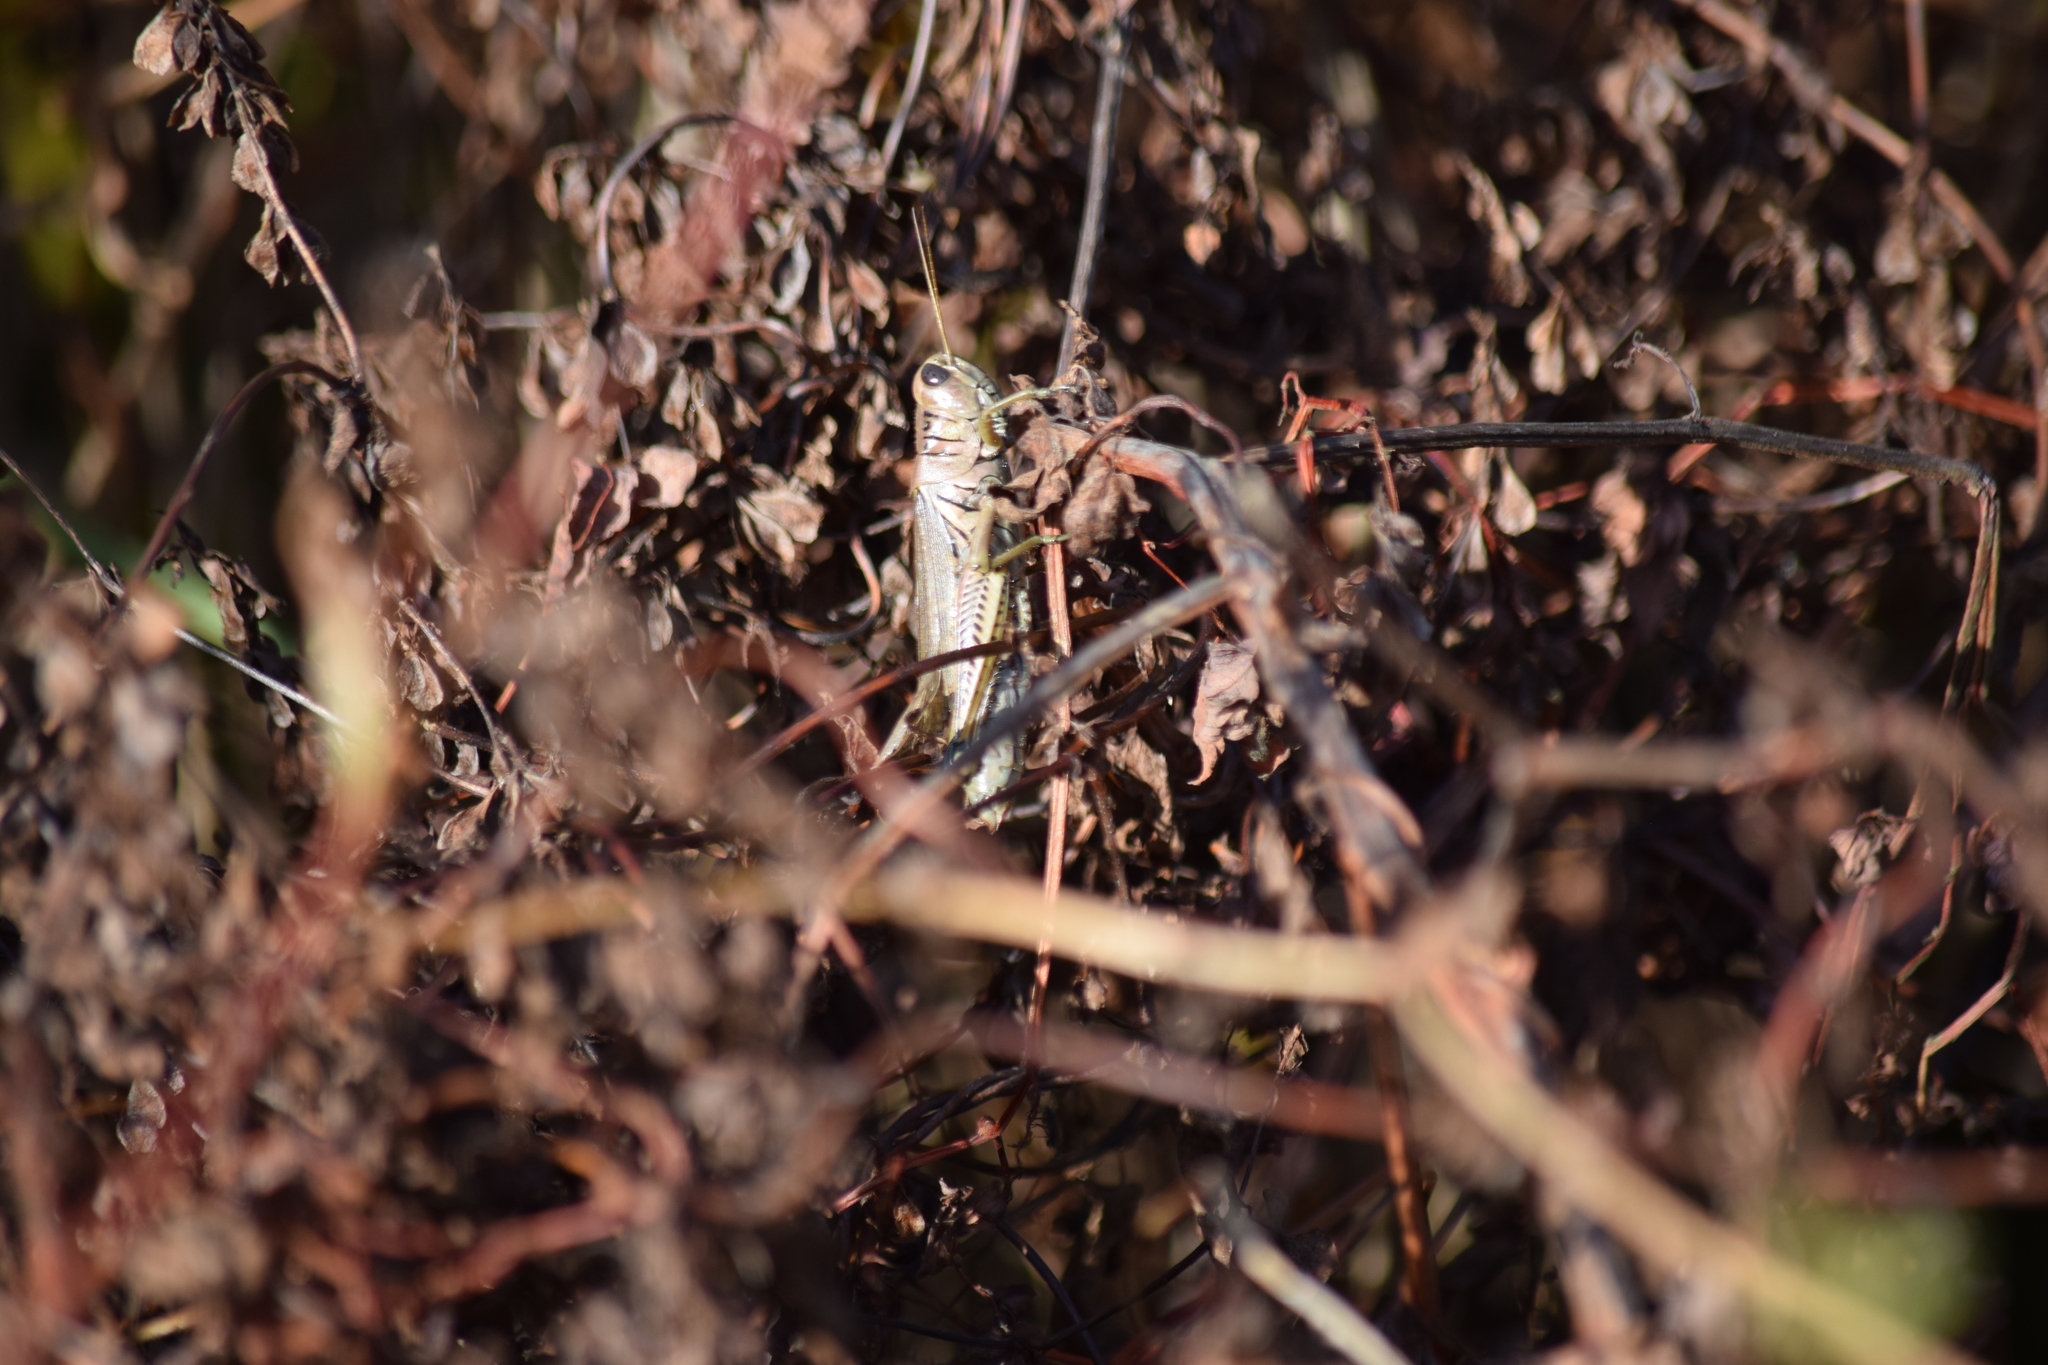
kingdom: Animalia
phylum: Arthropoda
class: Insecta
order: Orthoptera
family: Acrididae
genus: Melanoplus
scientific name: Melanoplus differentialis
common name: Differential grasshopper
